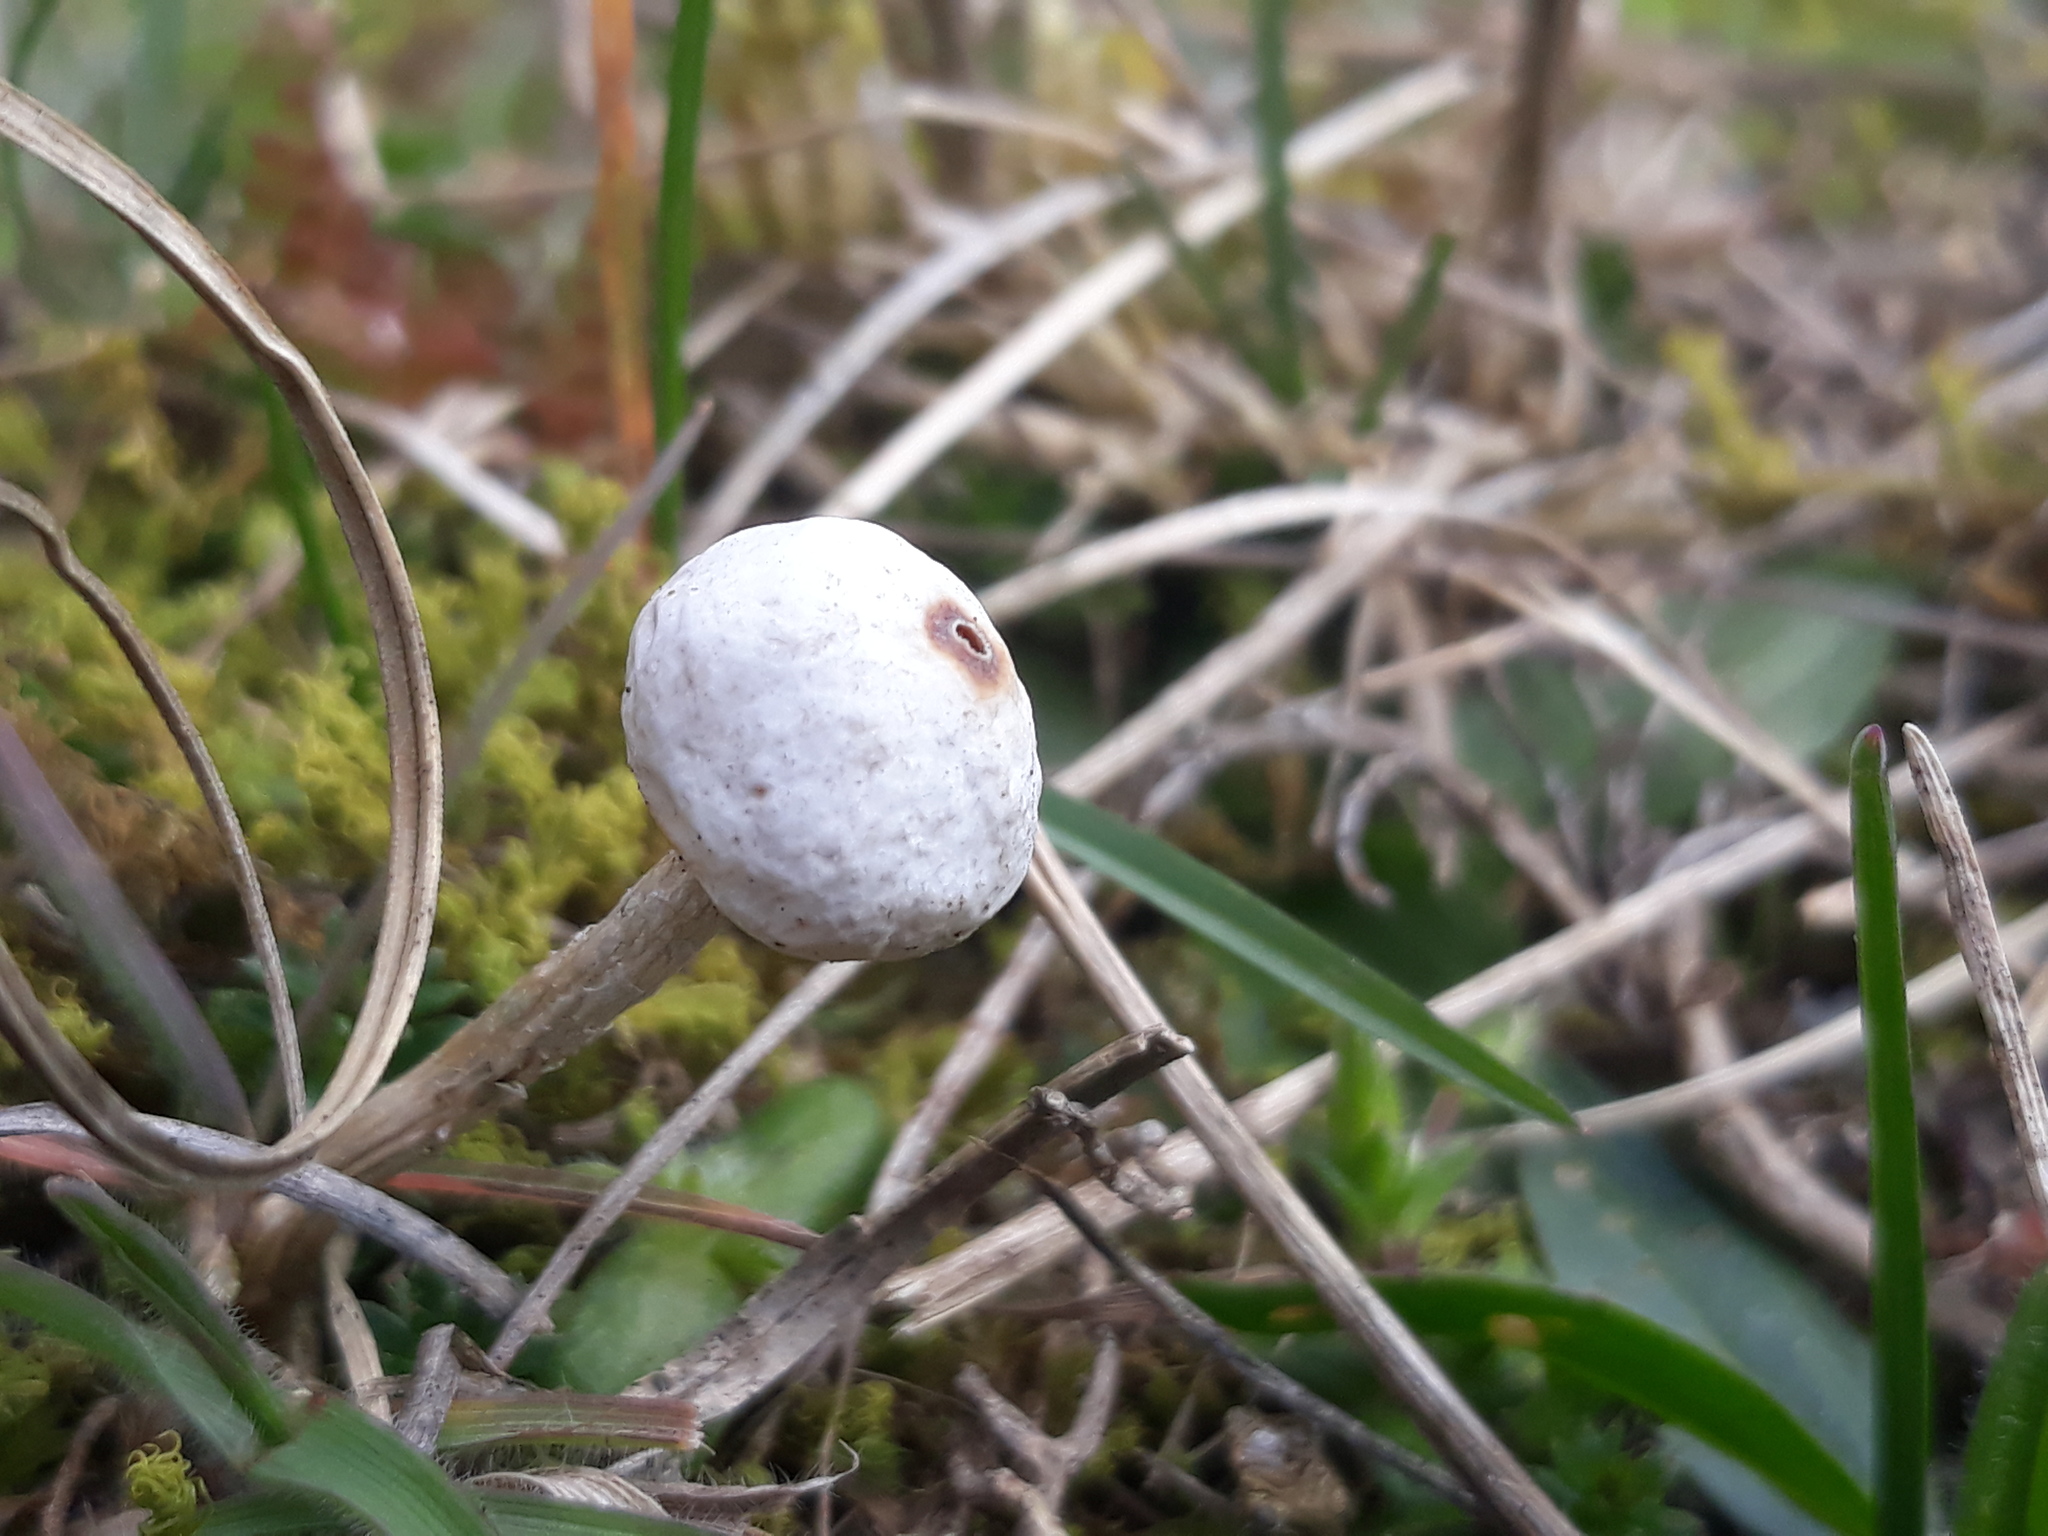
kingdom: Fungi
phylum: Basidiomycota
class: Agaricomycetes
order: Agaricales
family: Agaricaceae
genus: Tulostoma
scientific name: Tulostoma brumale
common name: Winter stalk puffball
